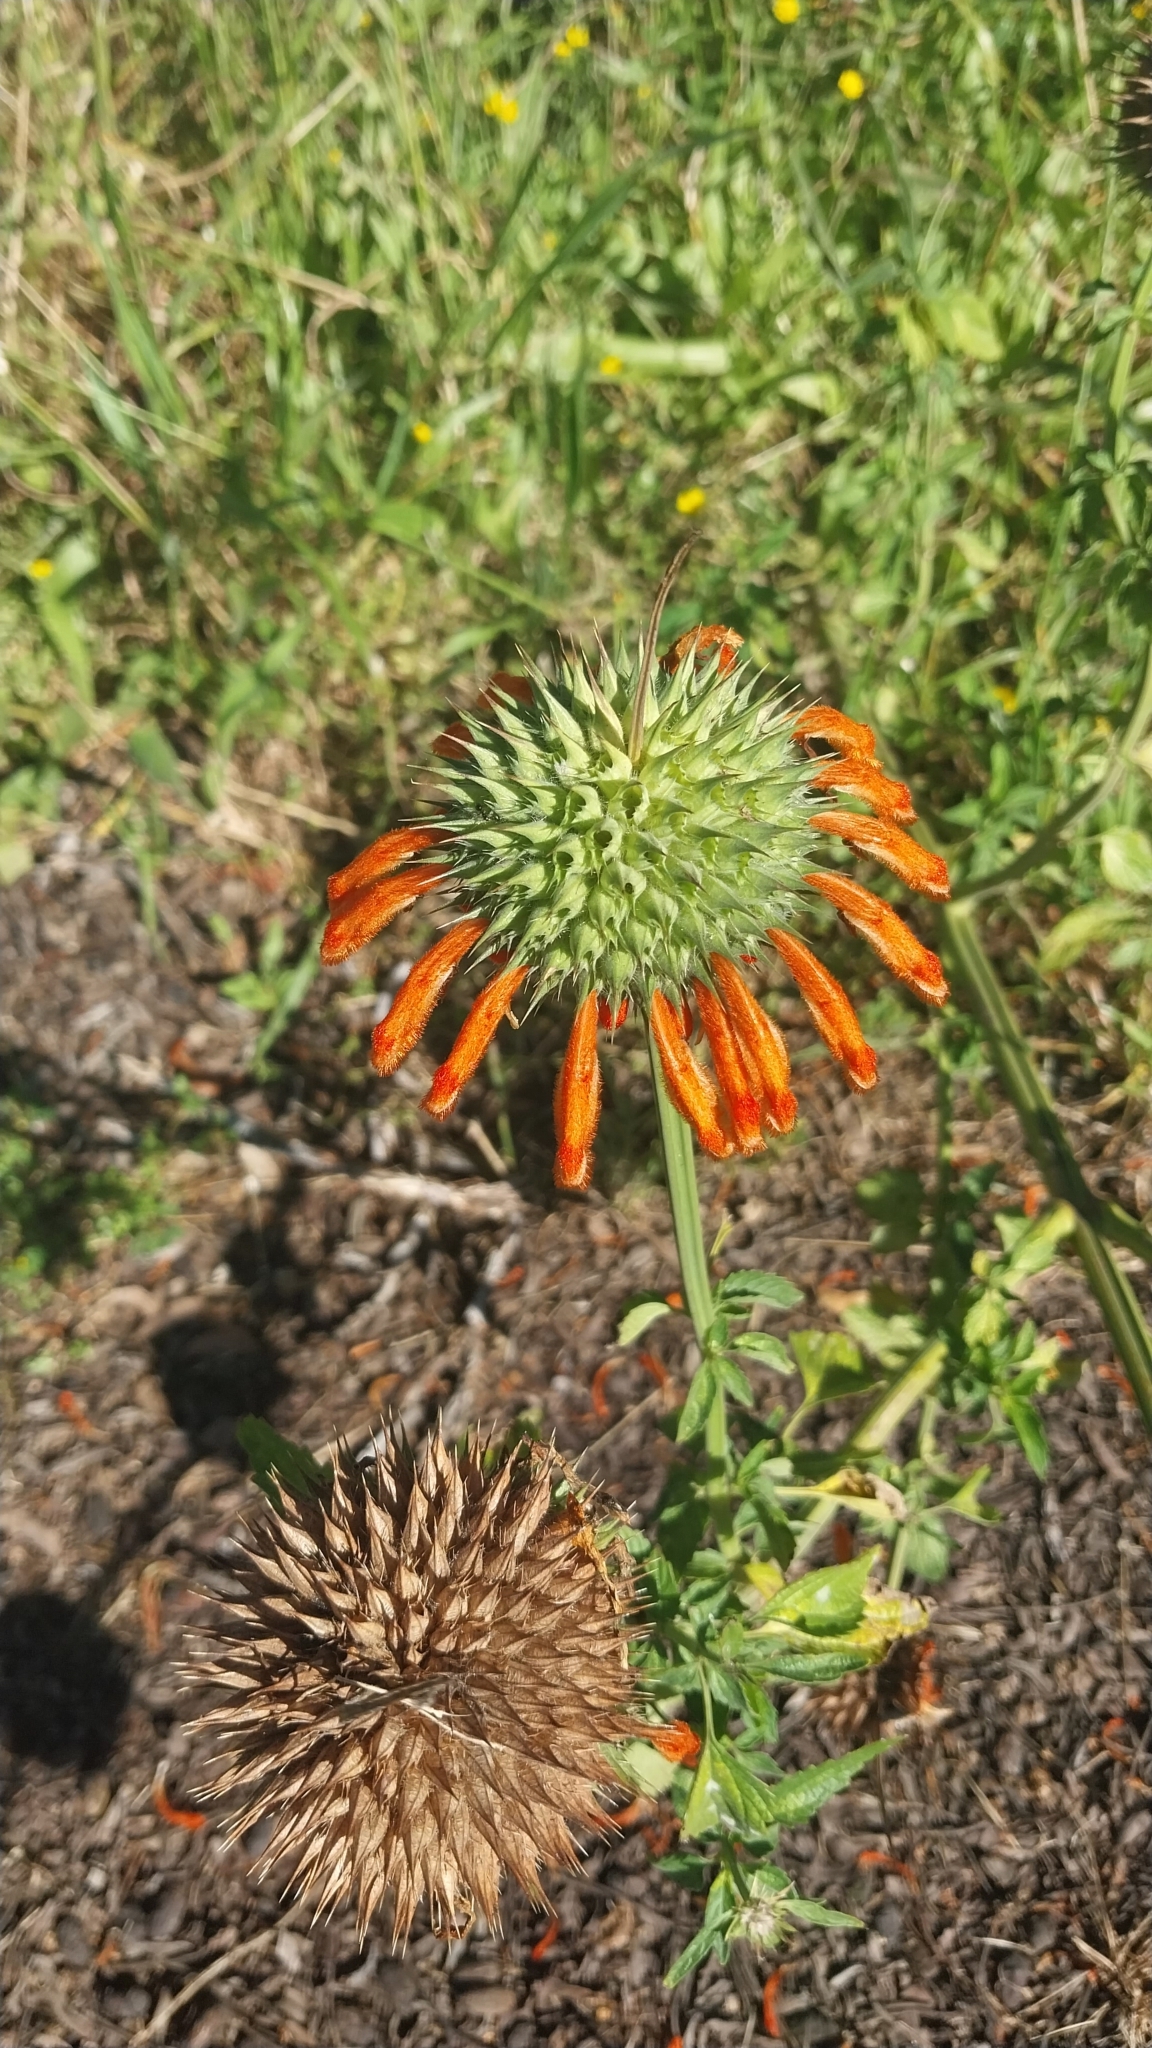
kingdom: Plantae
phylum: Tracheophyta
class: Magnoliopsida
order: Lamiales
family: Lamiaceae
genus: Leonotis
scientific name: Leonotis nepetifolia
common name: Christmas candlestick
